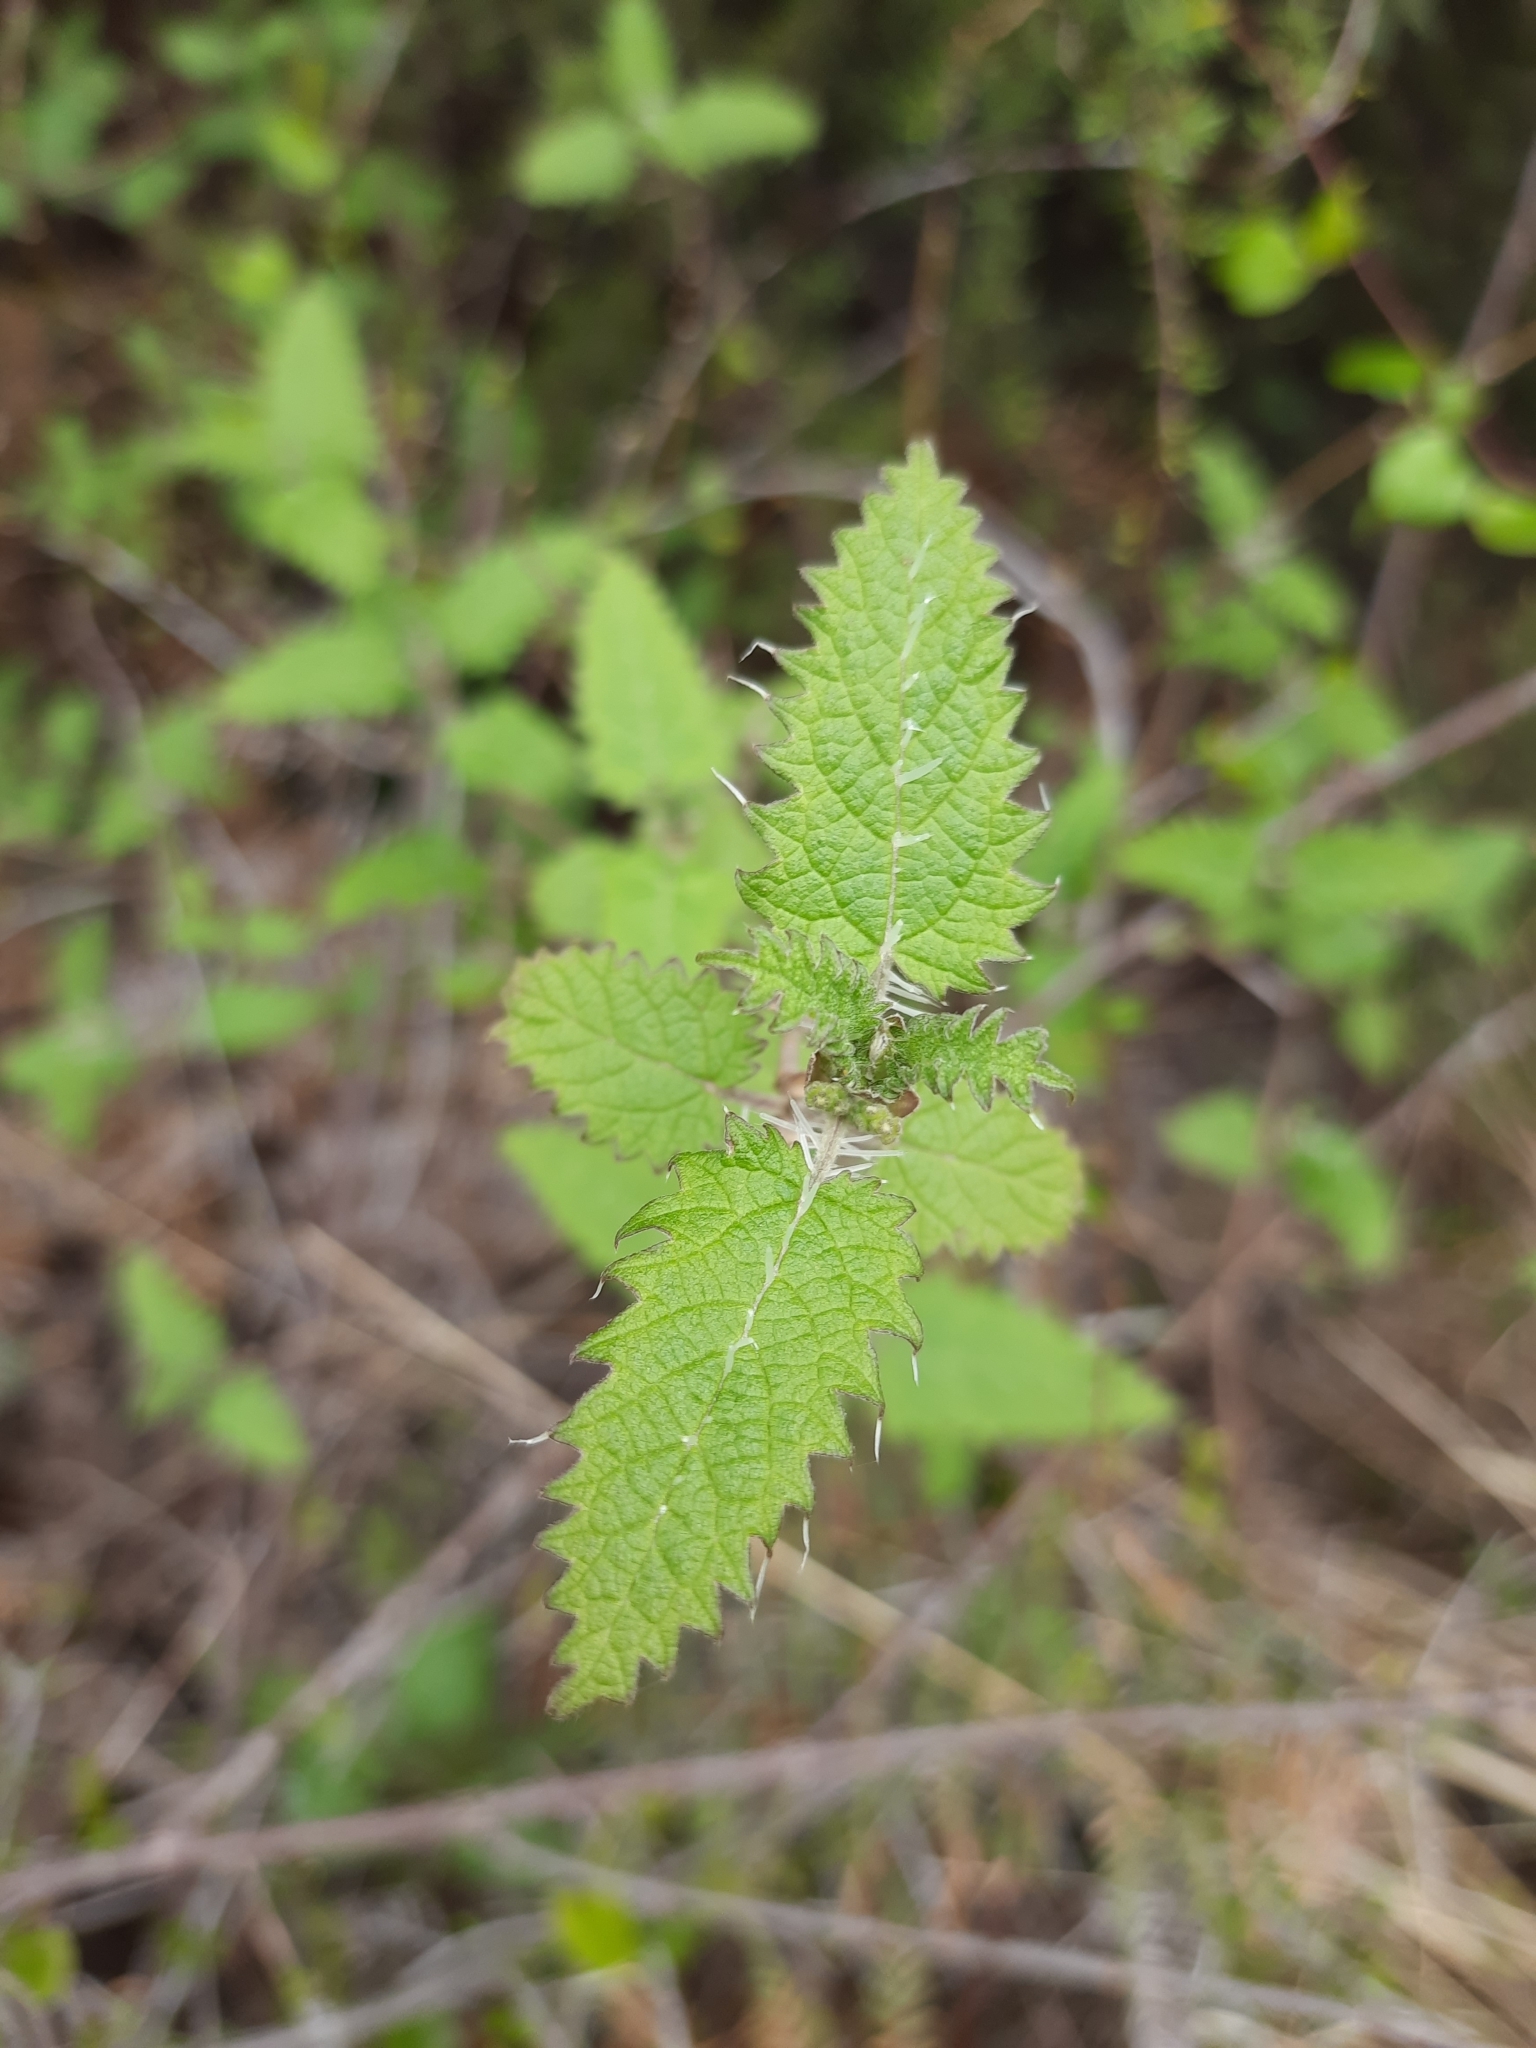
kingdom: Plantae
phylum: Tracheophyta
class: Magnoliopsida
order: Rosales
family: Urticaceae
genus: Urtica
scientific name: Urtica ferox
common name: Tree nettle
